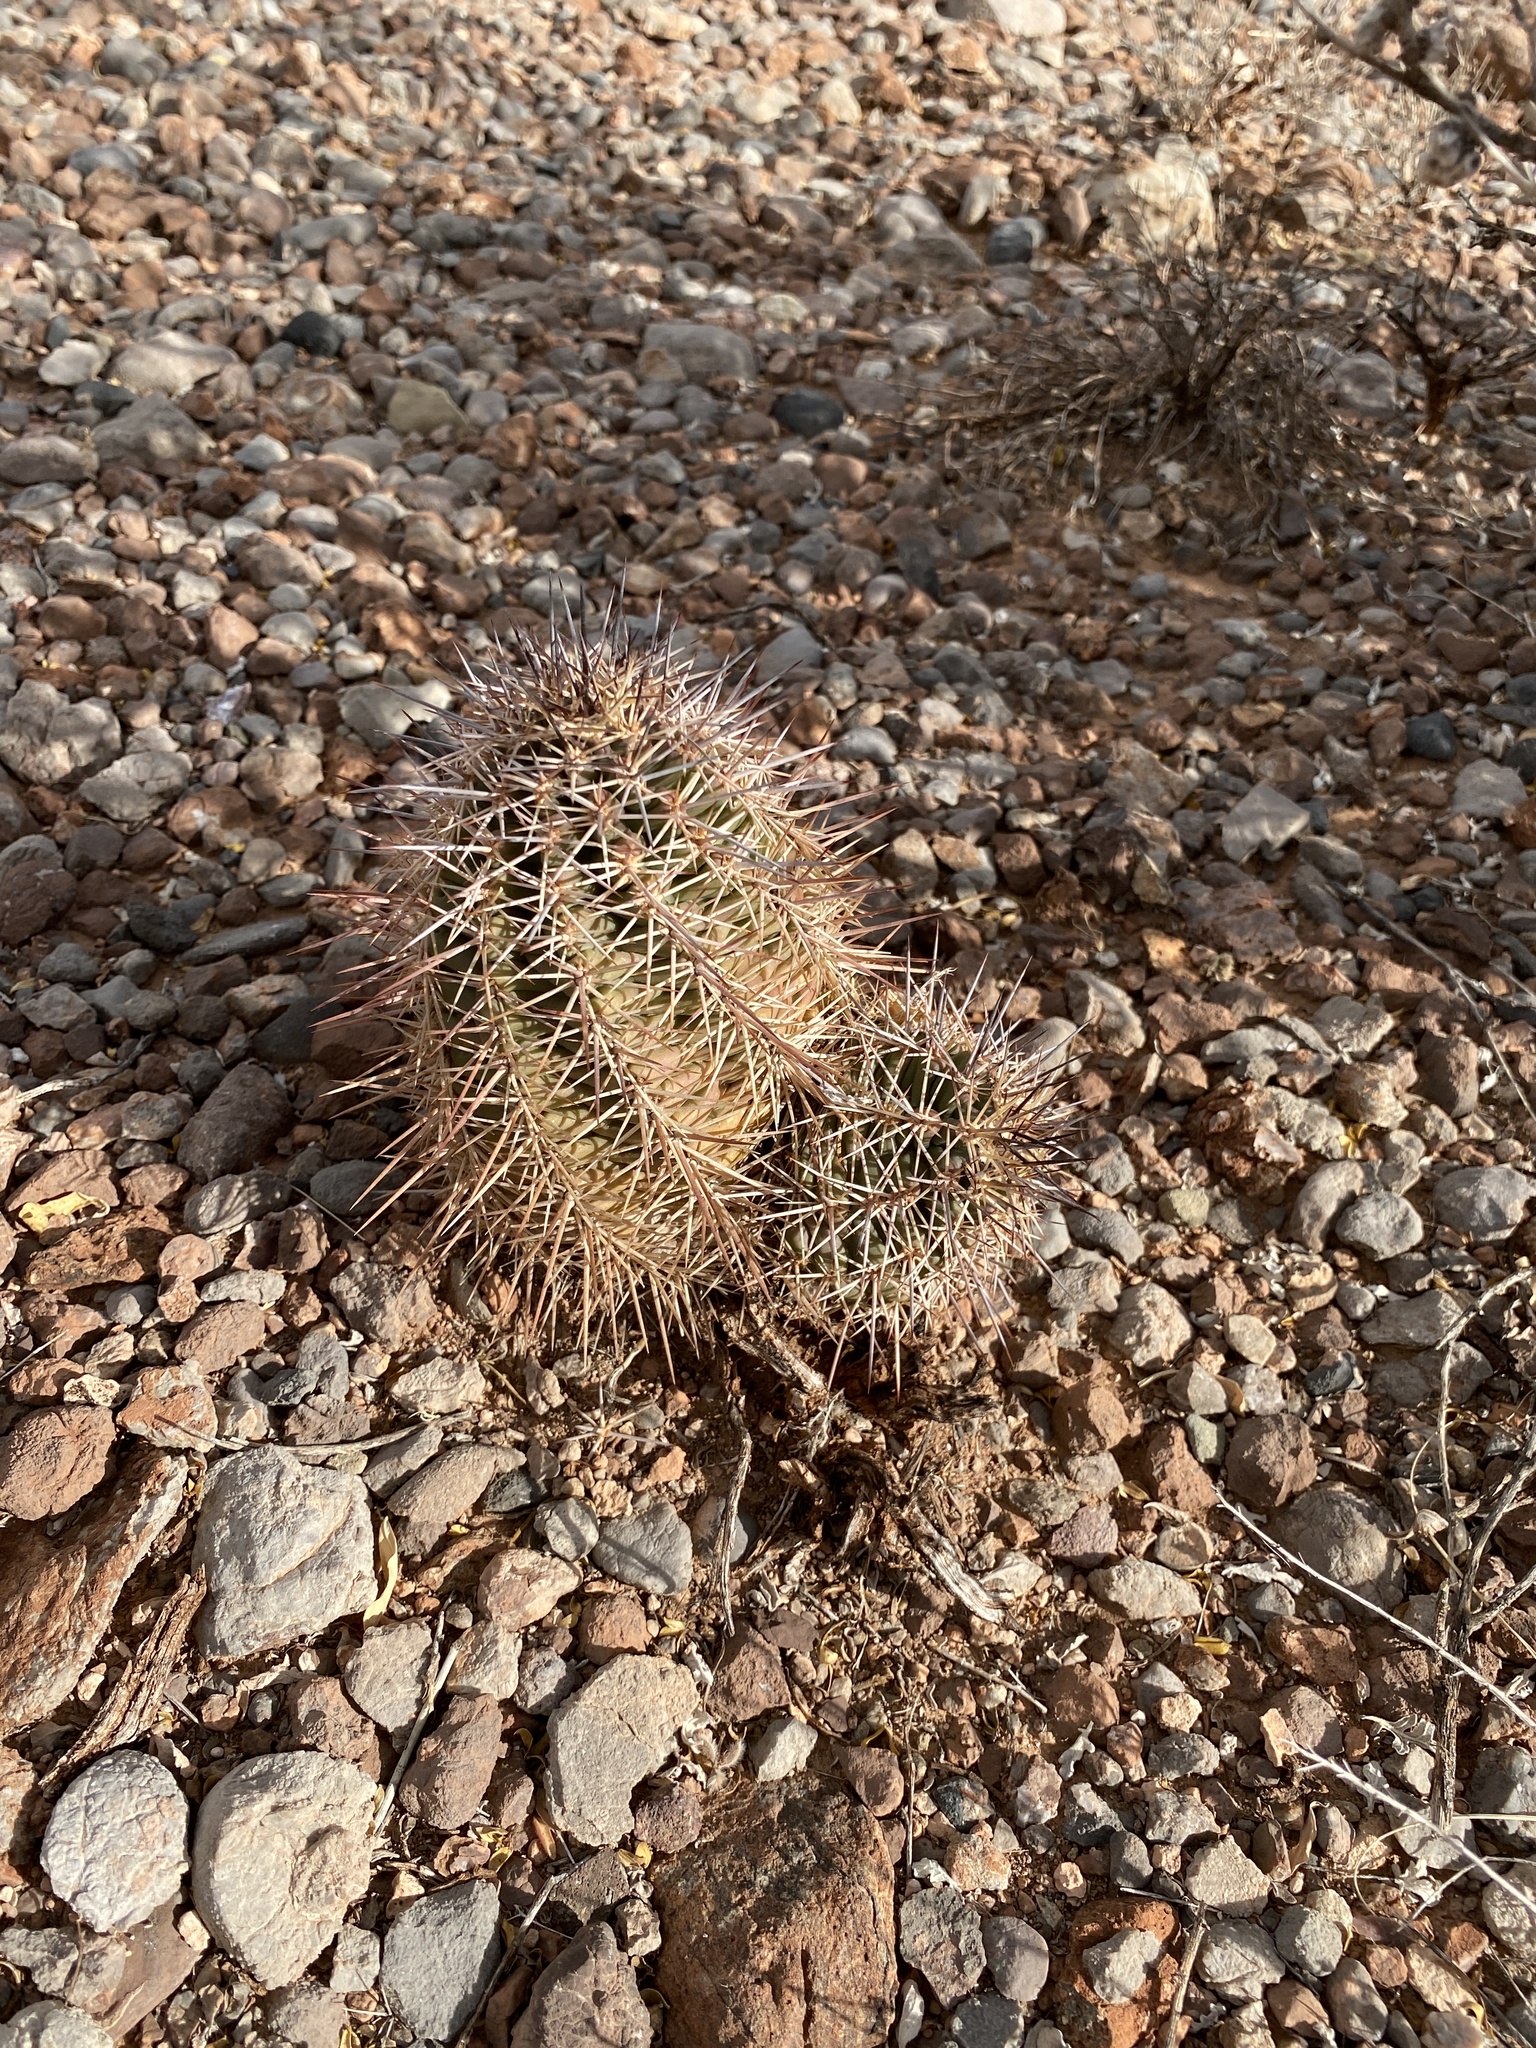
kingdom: Plantae
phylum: Tracheophyta
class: Magnoliopsida
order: Caryophyllales
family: Cactaceae
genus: Echinocereus
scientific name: Echinocereus coccineus
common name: Scarlet hedgehog cactus
